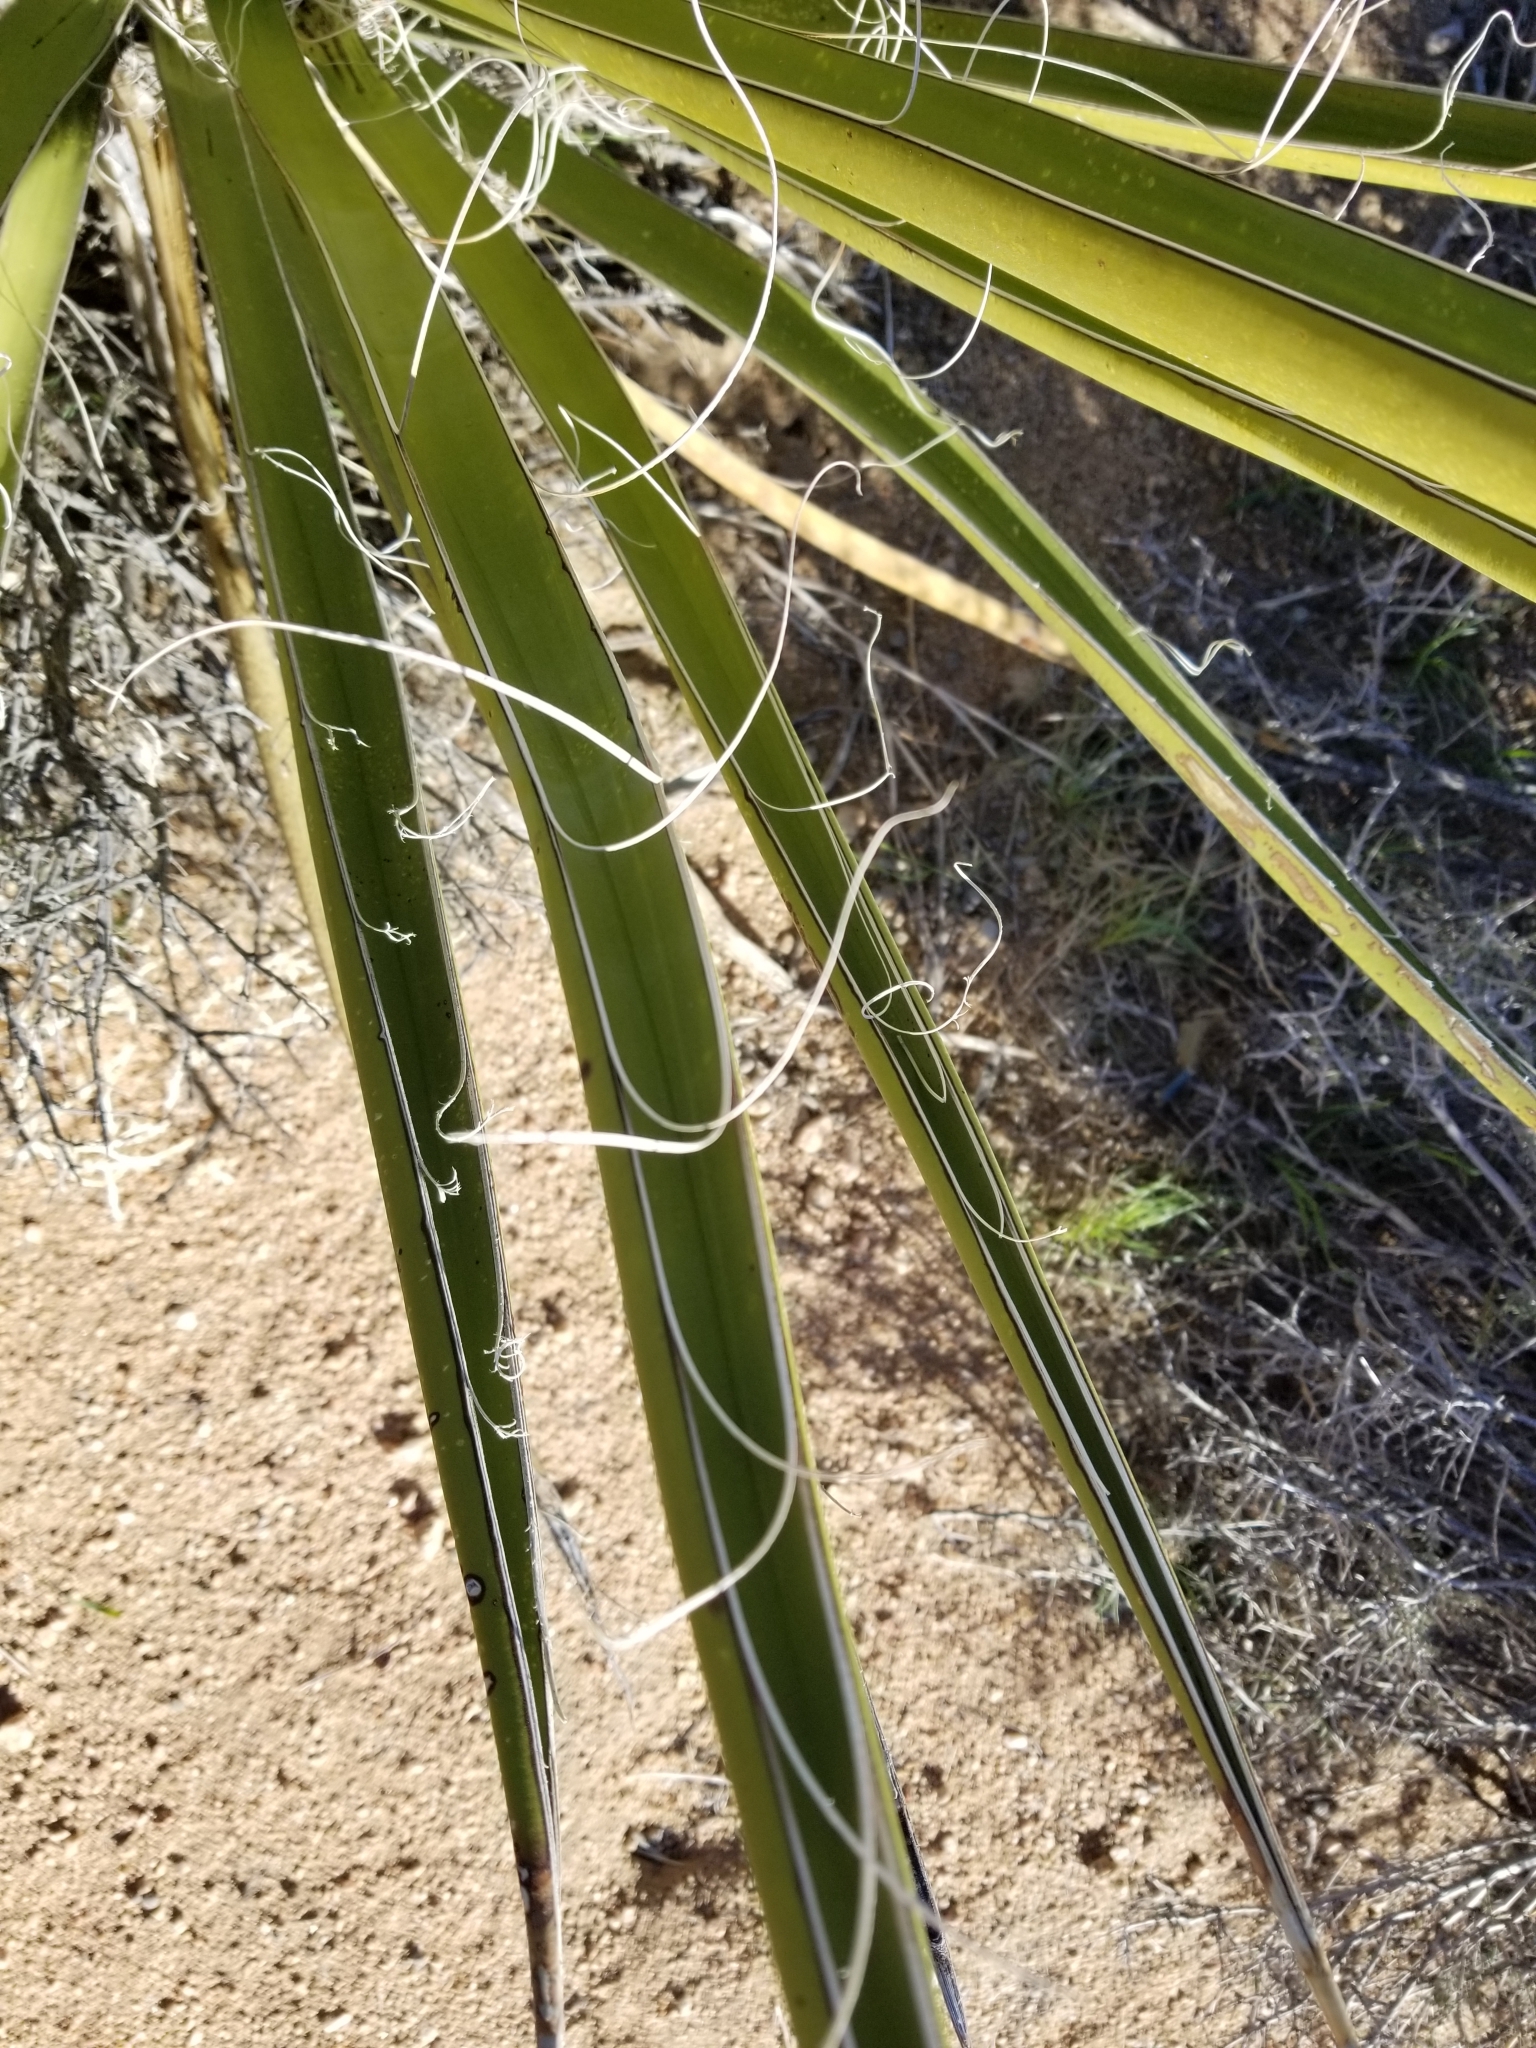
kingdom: Plantae
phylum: Tracheophyta
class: Liliopsida
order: Asparagales
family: Asparagaceae
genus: Yucca
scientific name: Yucca schidigera
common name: Mojave yucca
